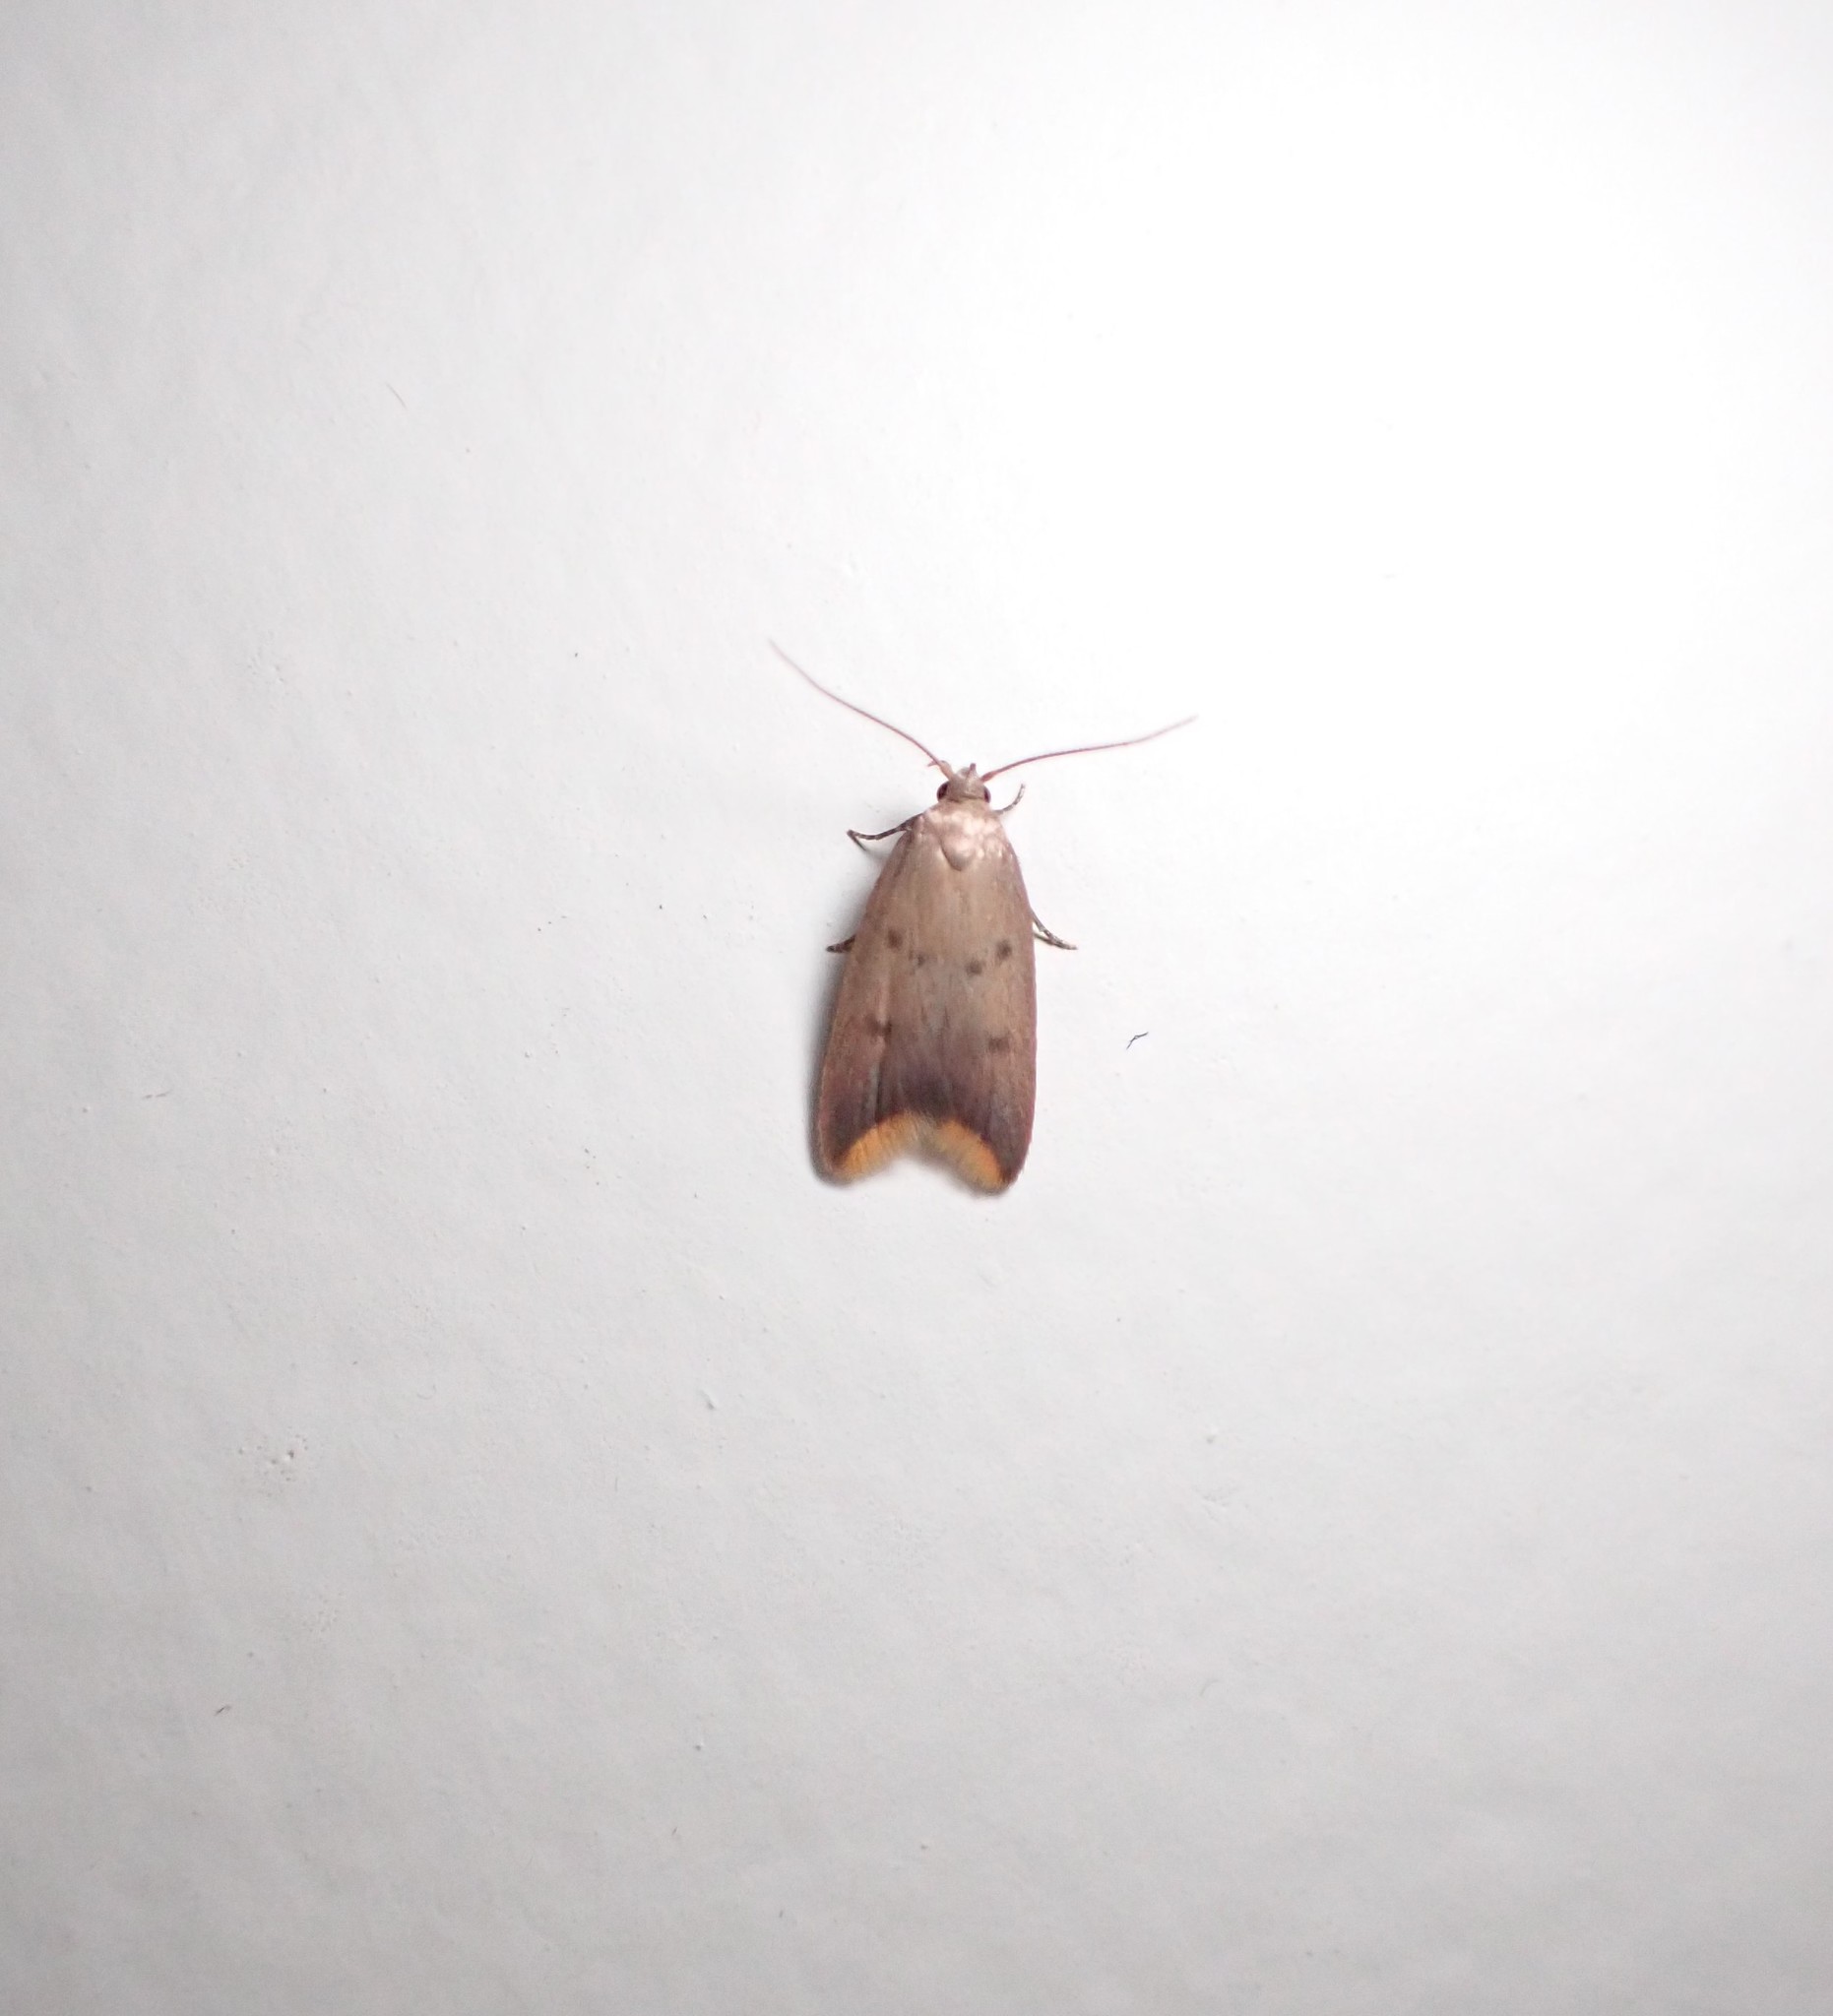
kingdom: Animalia
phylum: Arthropoda
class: Insecta
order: Lepidoptera
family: Oecophoridae
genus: Tachystola
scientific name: Tachystola acroxantha
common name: Ruddy streak
